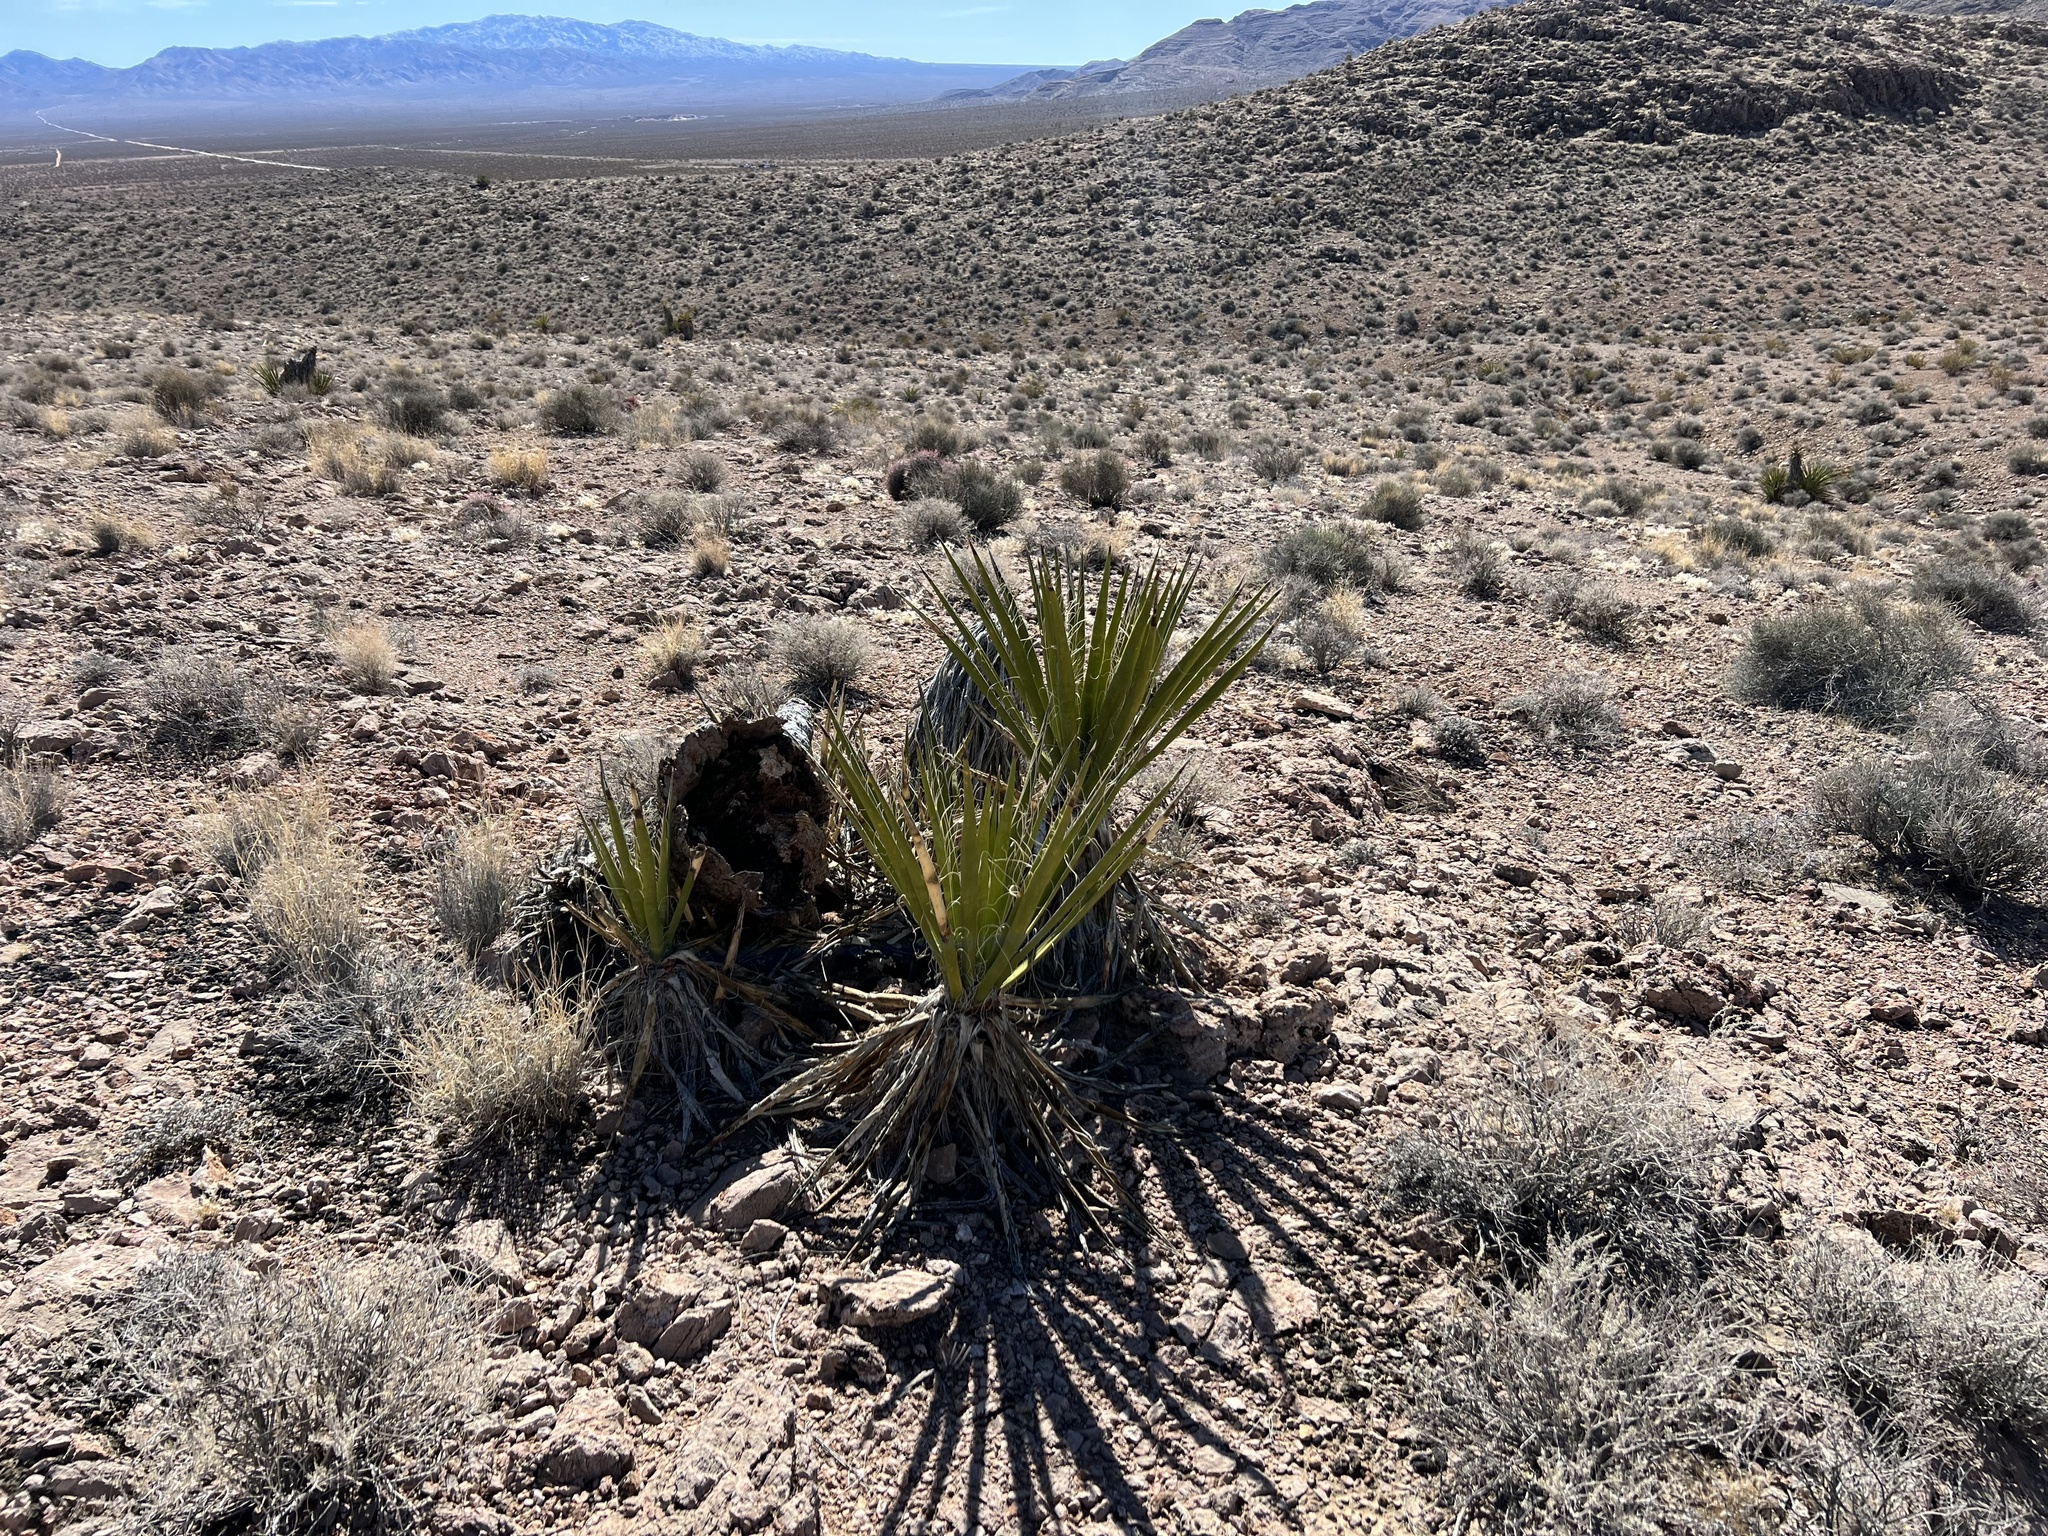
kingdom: Plantae
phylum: Tracheophyta
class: Liliopsida
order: Asparagales
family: Asparagaceae
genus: Yucca
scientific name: Yucca schidigera
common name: Mojave yucca
